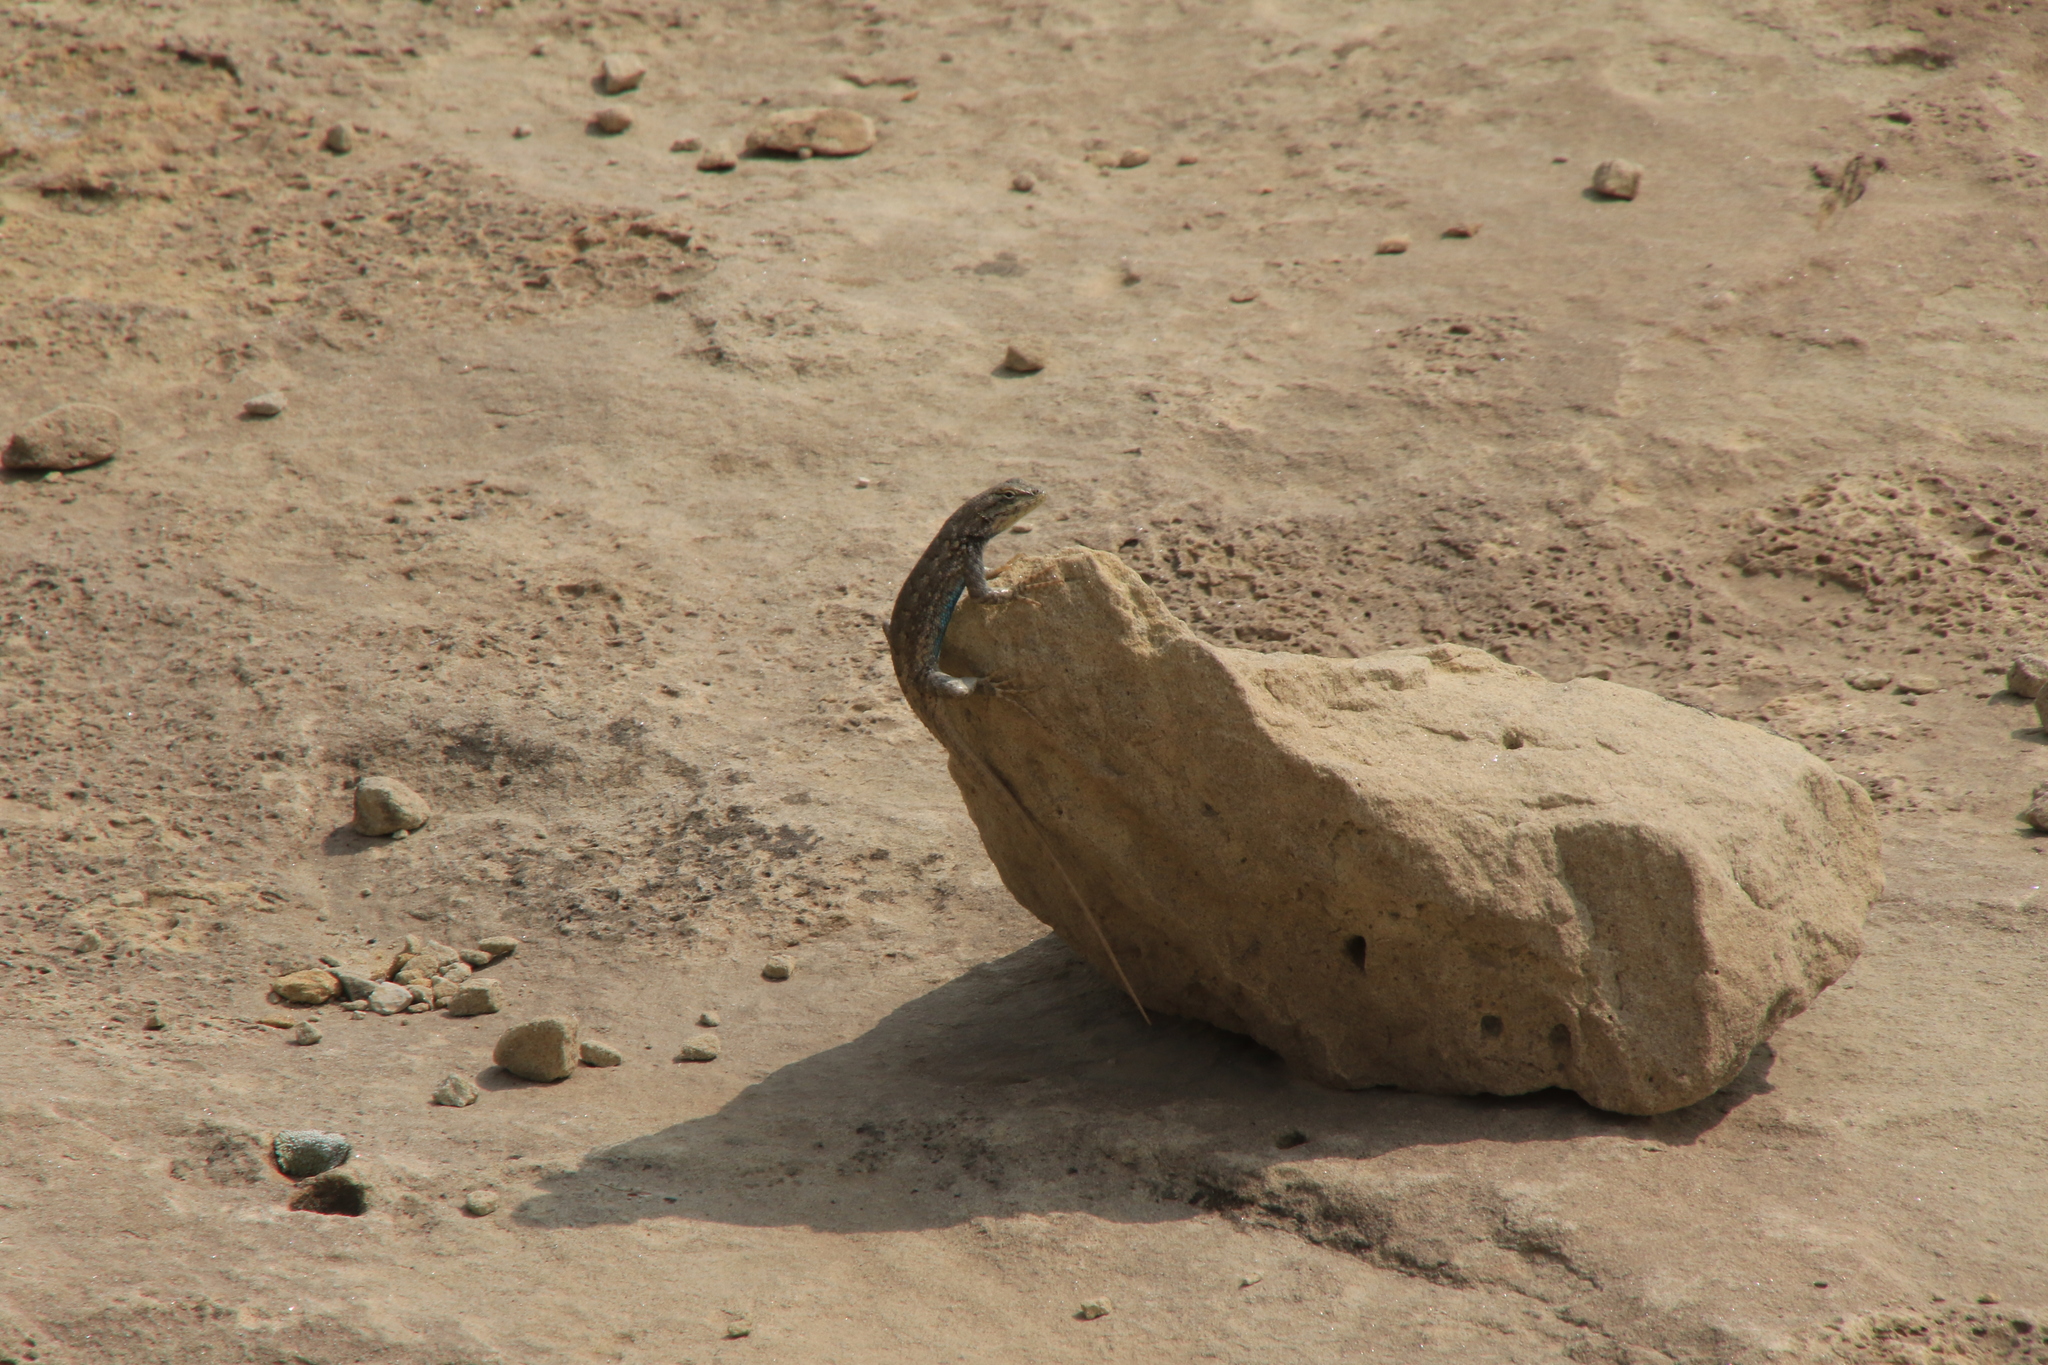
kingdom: Animalia
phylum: Chordata
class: Squamata
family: Phrynosomatidae
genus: Sceloporus
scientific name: Sceloporus consobrinus
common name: Southern prairie lizard
